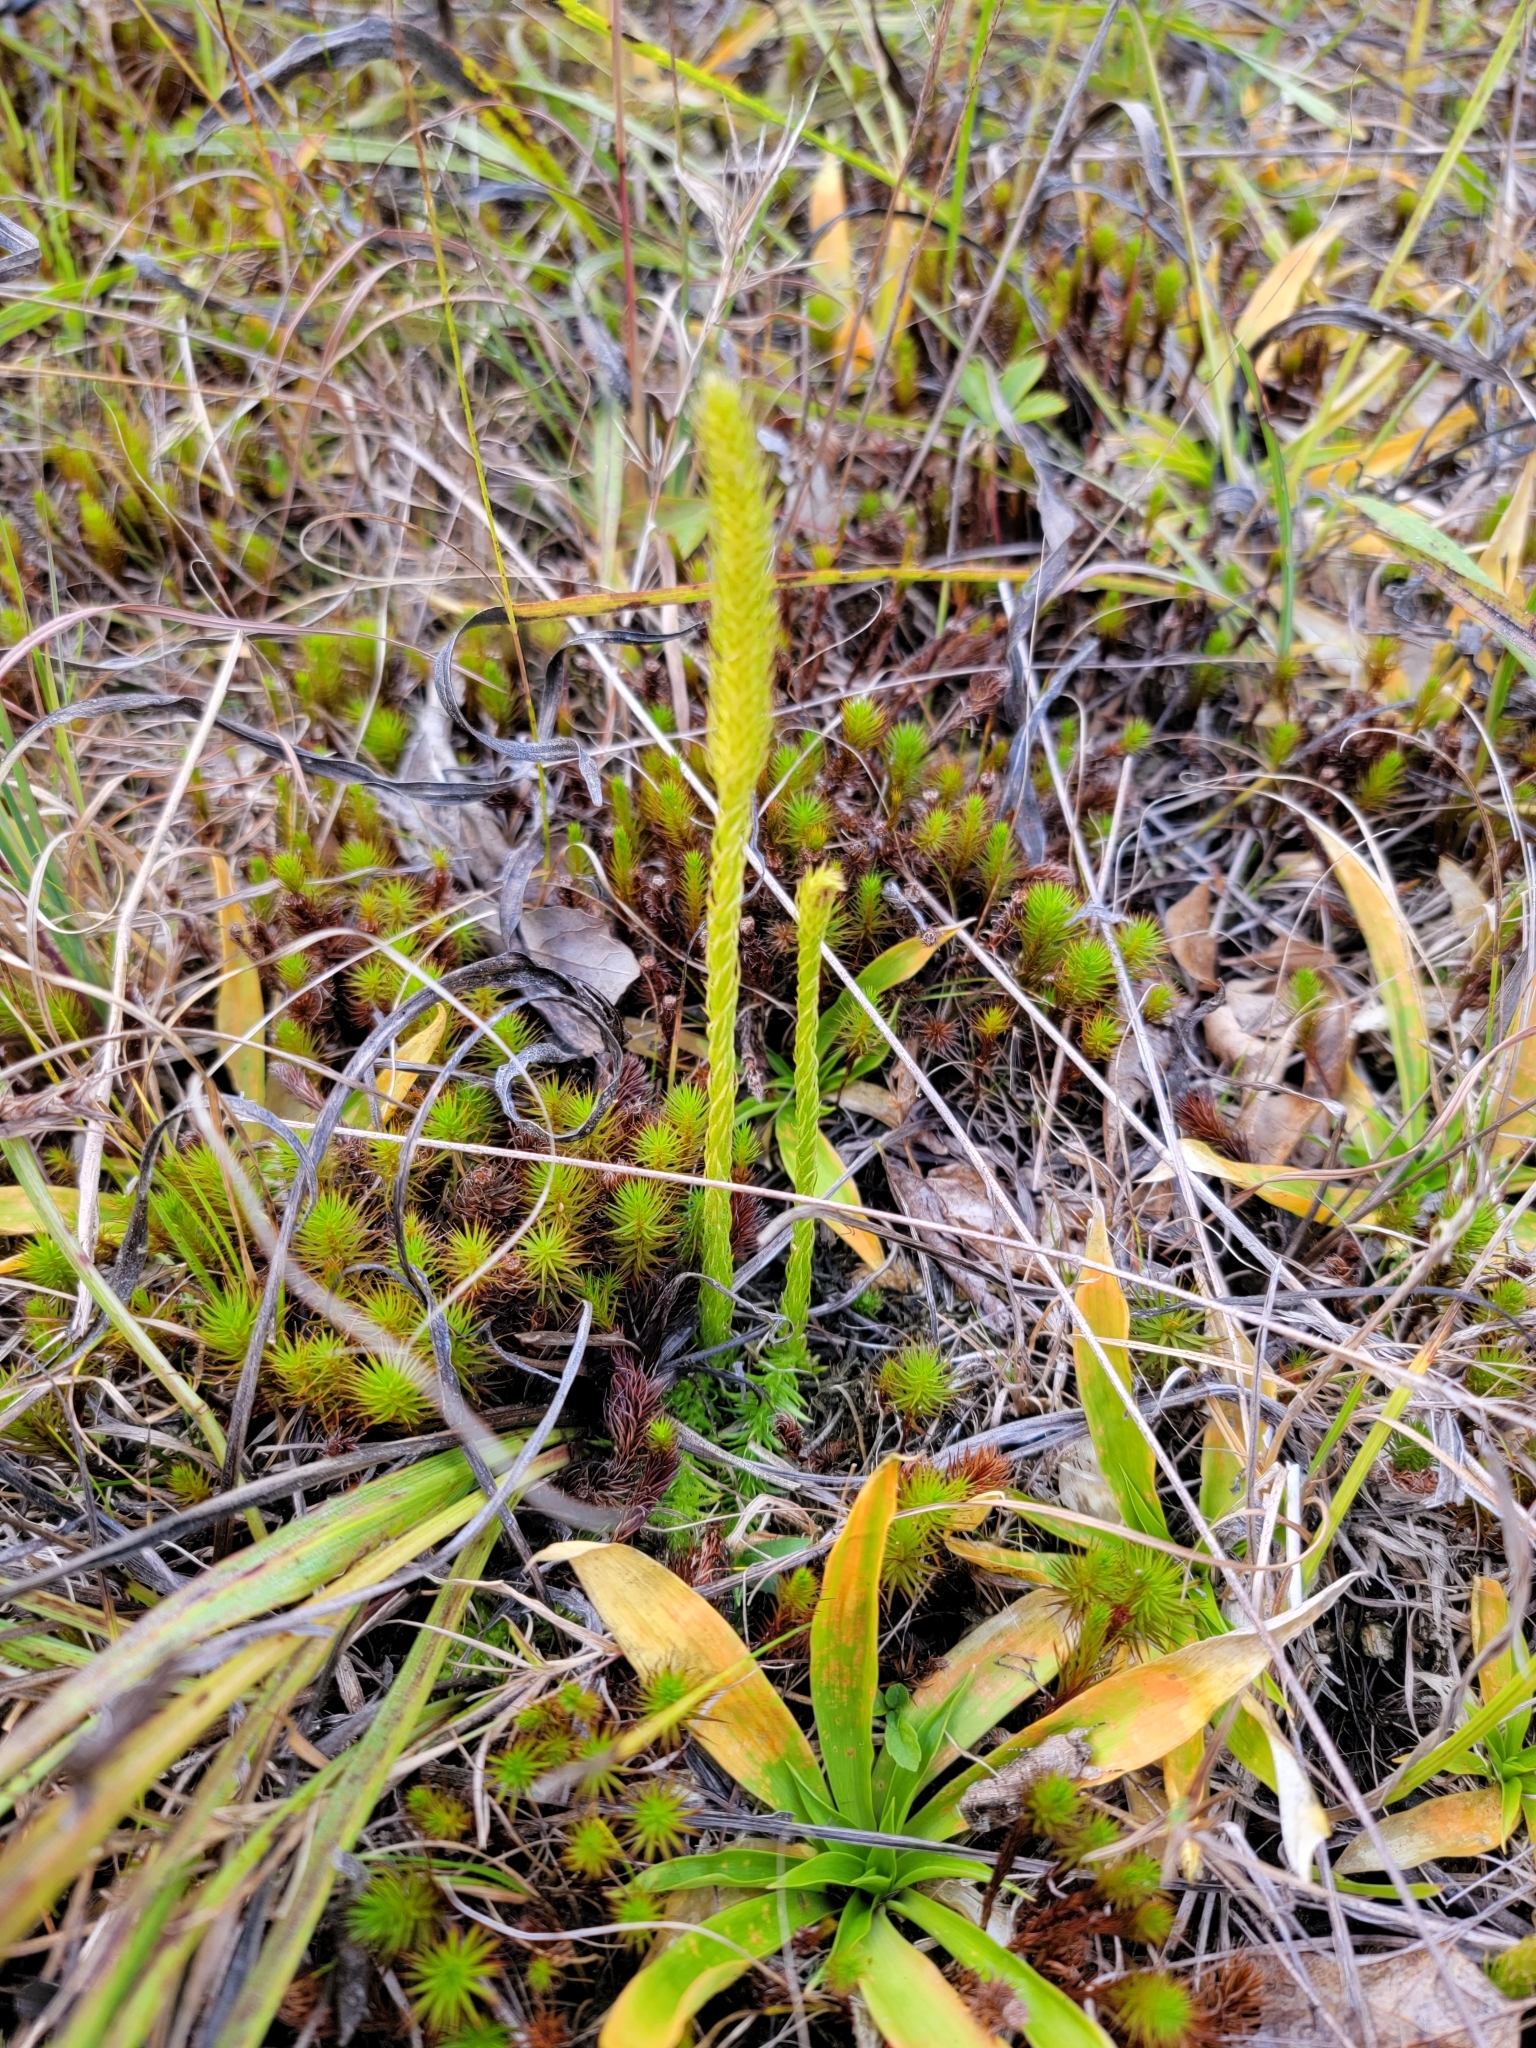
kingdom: Plantae
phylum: Tracheophyta
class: Lycopodiopsida
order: Lycopodiales
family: Lycopodiaceae
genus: Lycopodiella
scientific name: Lycopodiella subappressa
